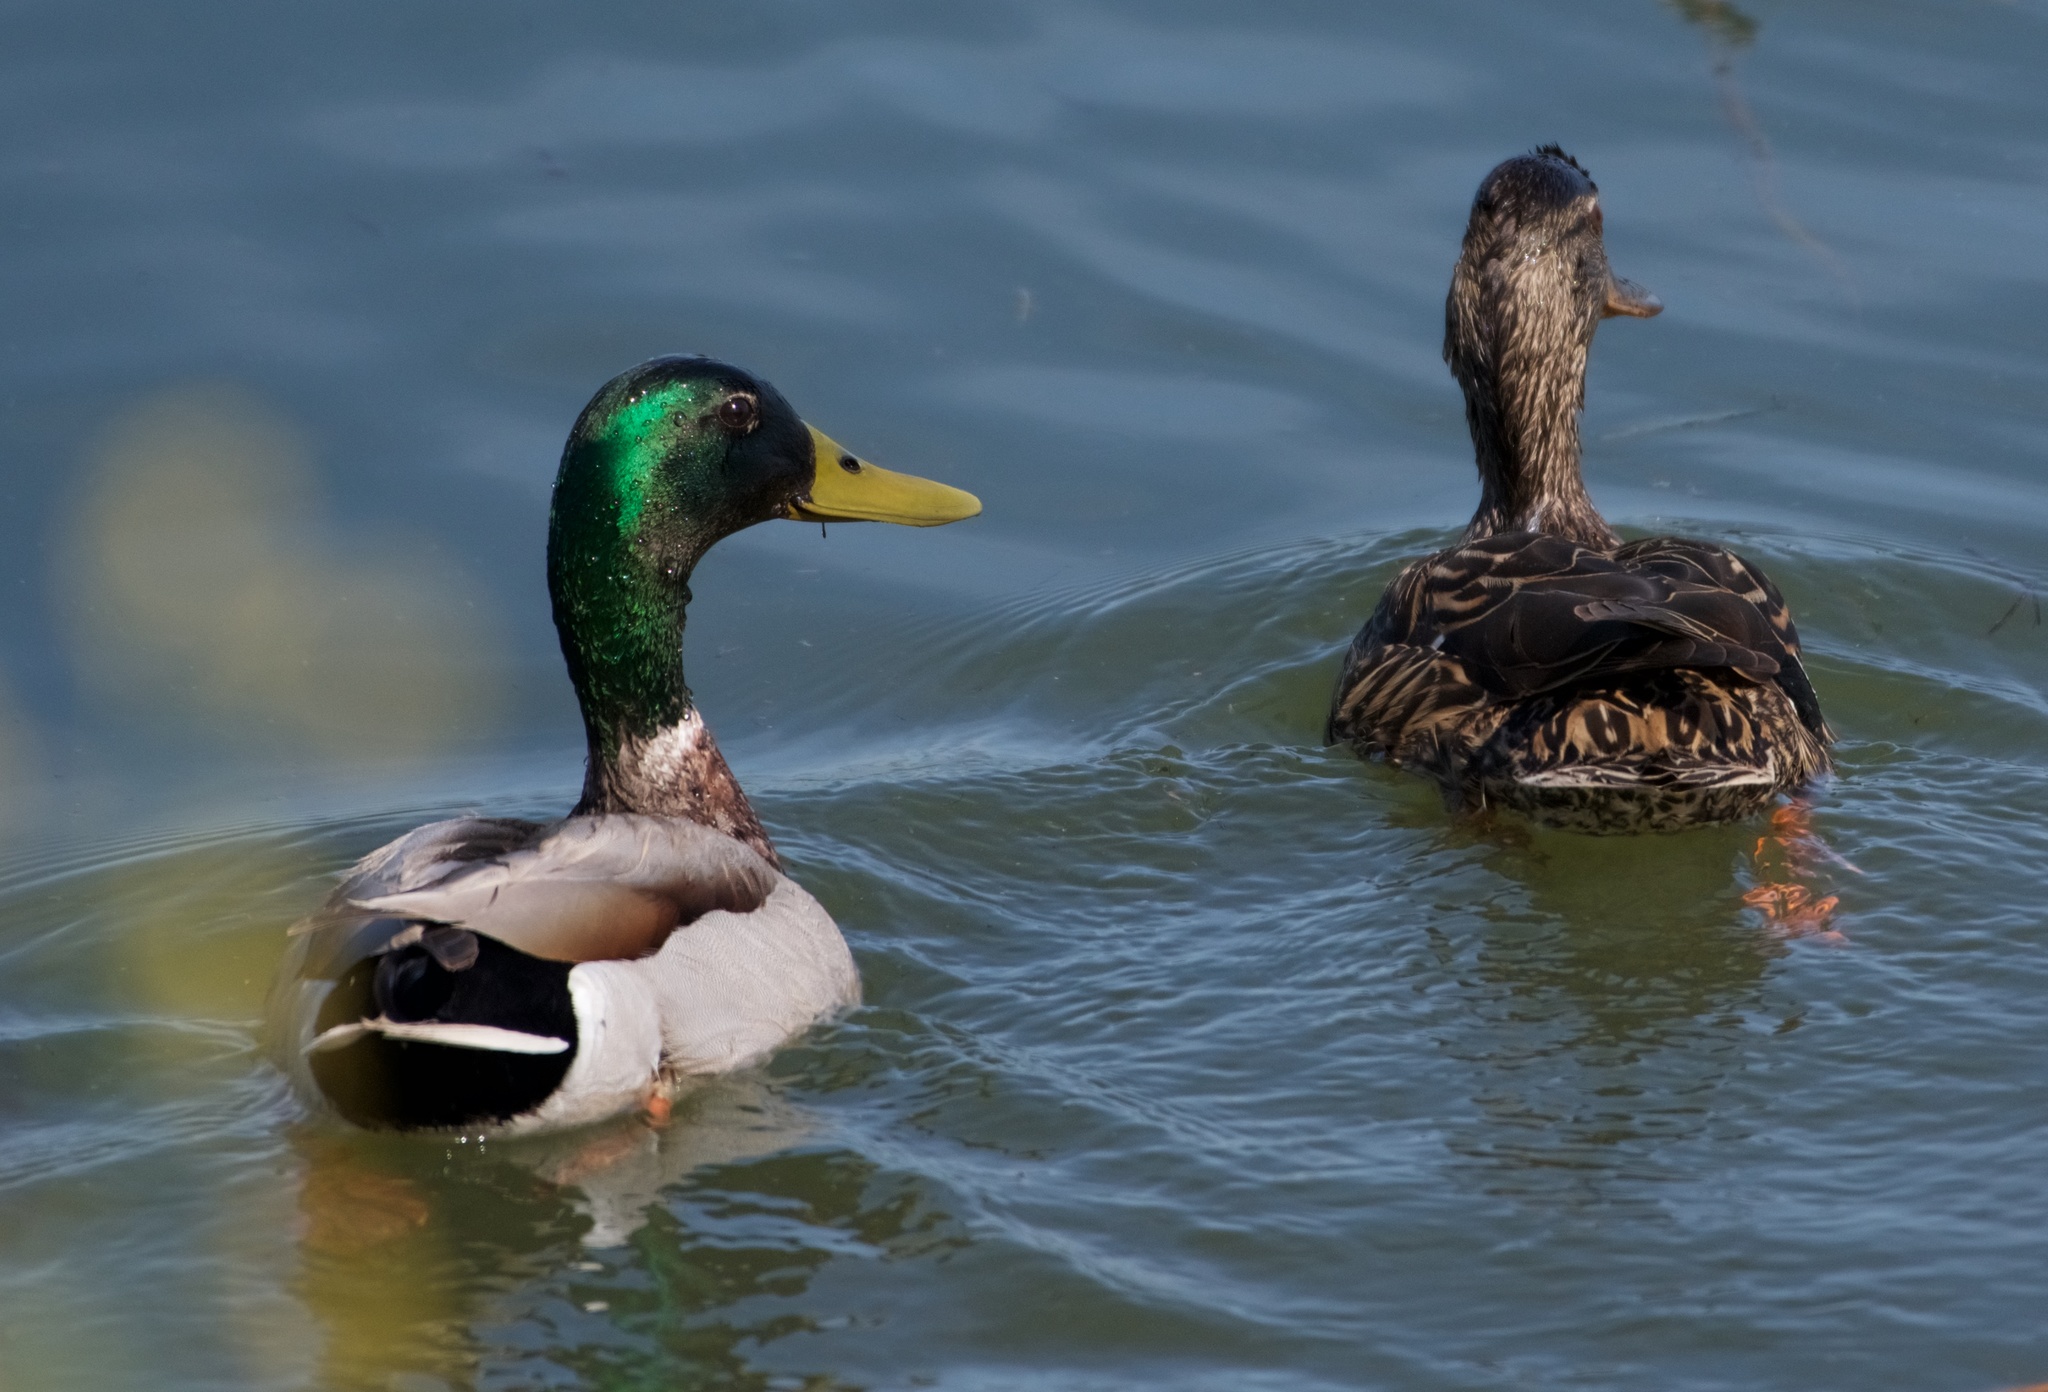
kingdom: Animalia
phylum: Chordata
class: Aves
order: Anseriformes
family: Anatidae
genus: Anas
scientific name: Anas platyrhynchos
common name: Mallard
